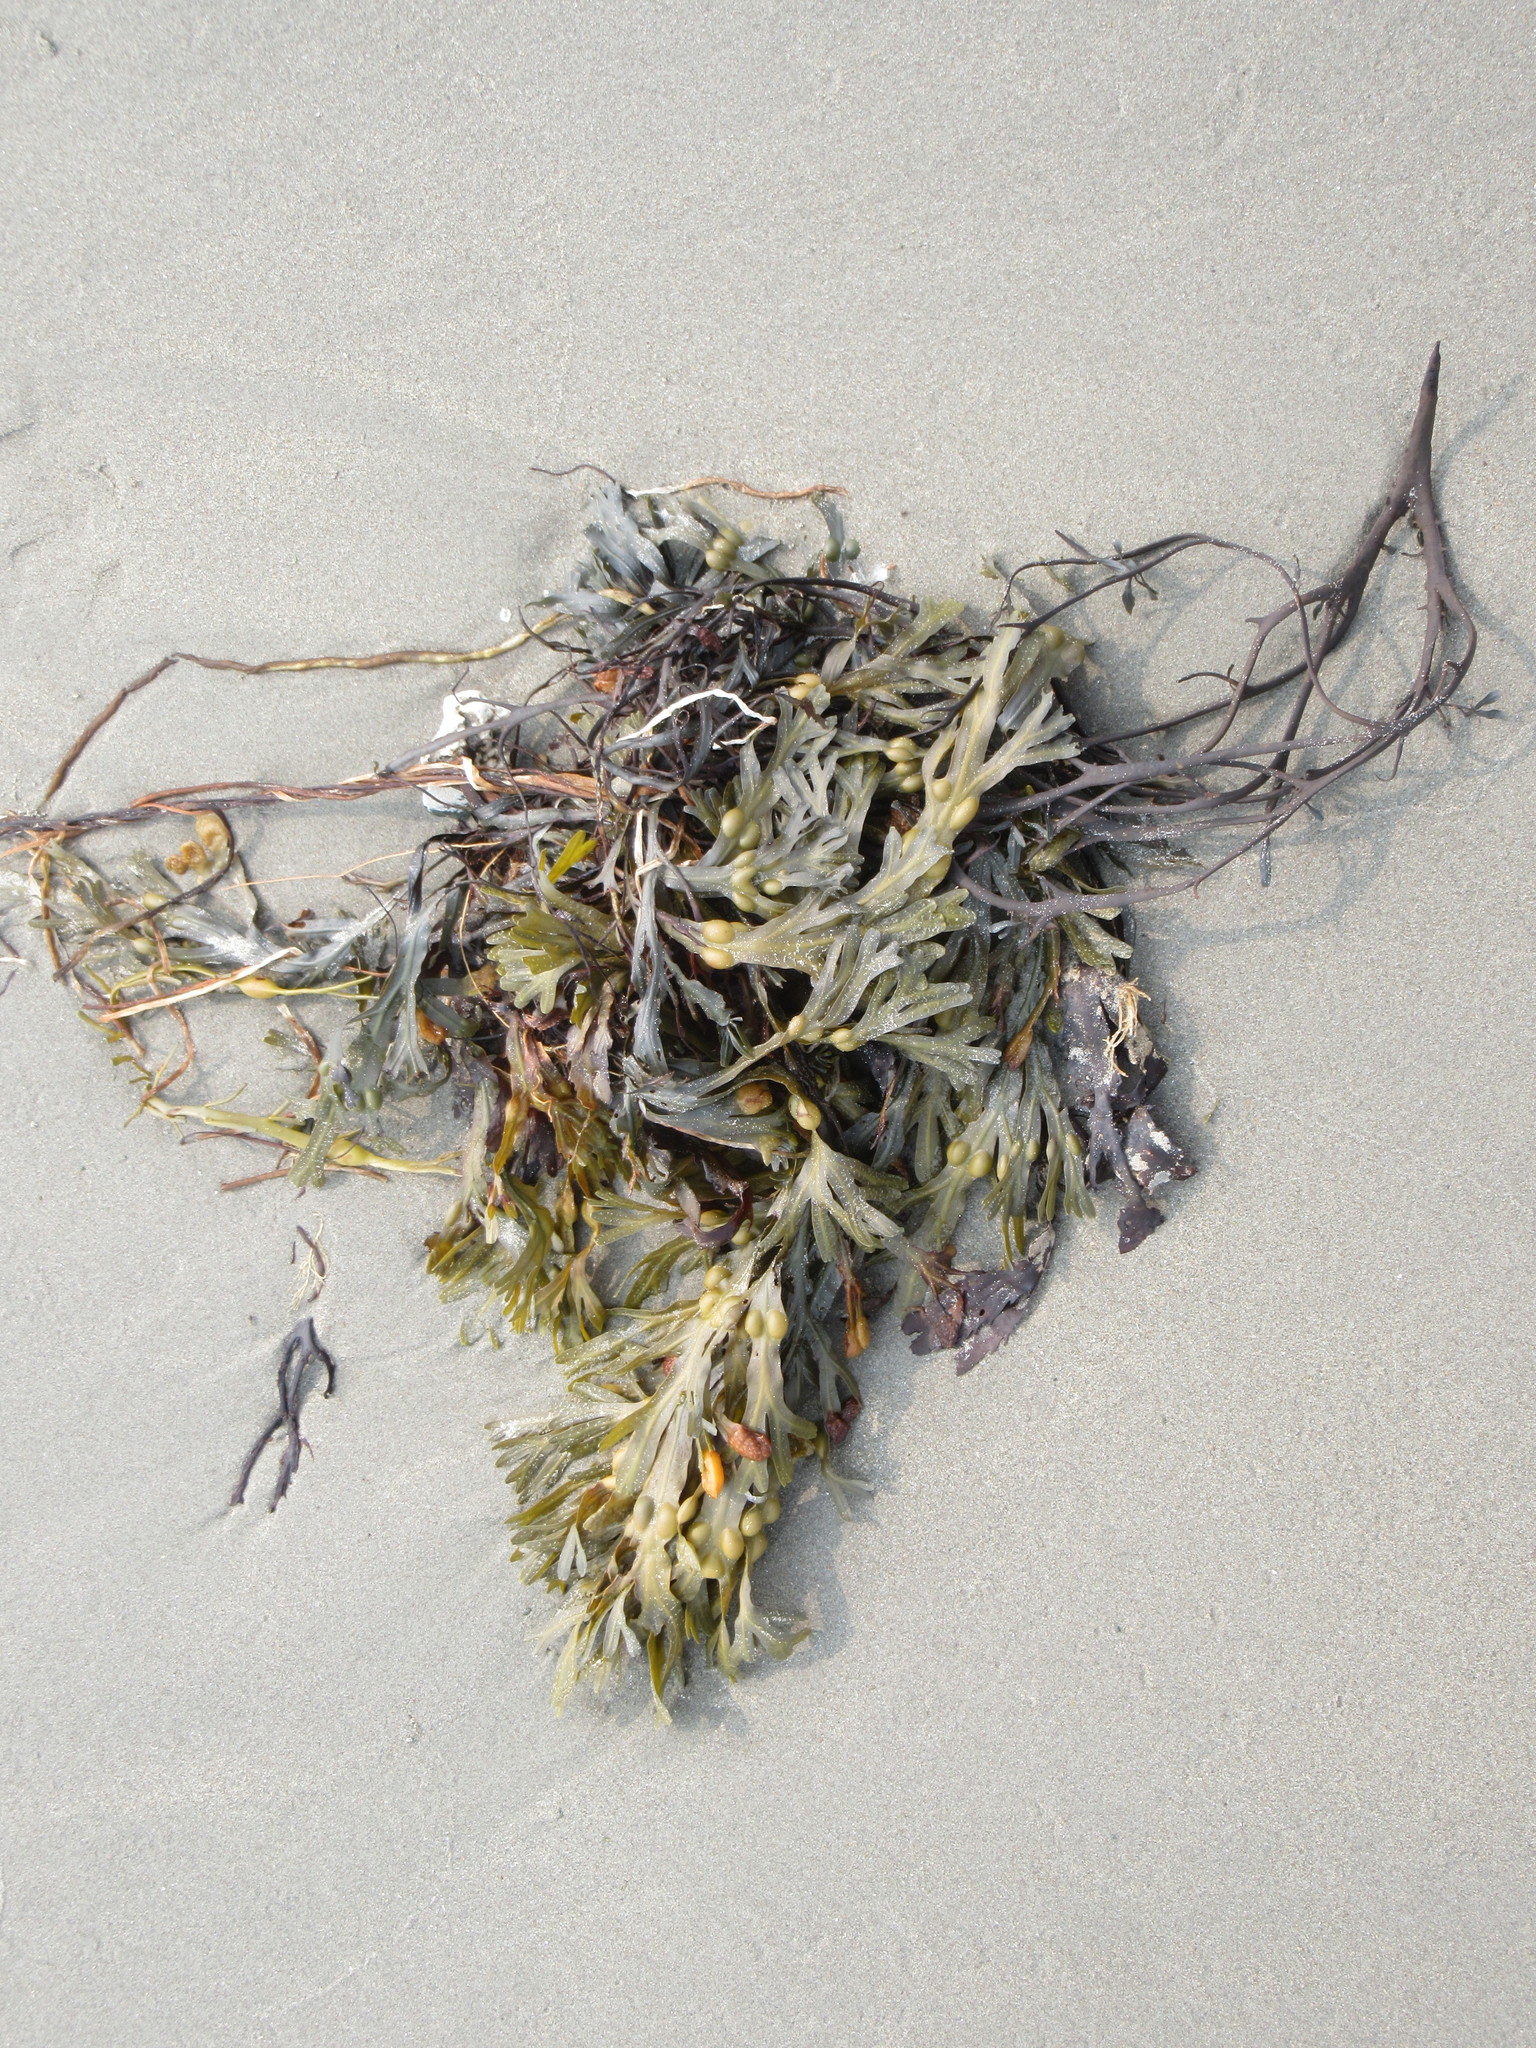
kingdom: Chromista
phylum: Ochrophyta
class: Phaeophyceae
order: Fucales
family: Fucaceae
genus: Fucus
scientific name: Fucus vesiculosus
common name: Bladder wrack
